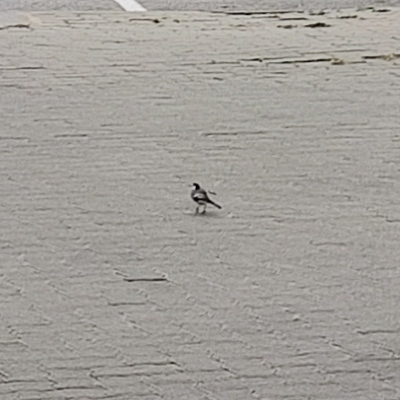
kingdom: Animalia
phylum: Chordata
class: Aves
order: Passeriformes
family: Motacillidae
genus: Motacilla
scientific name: Motacilla alba
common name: White wagtail
